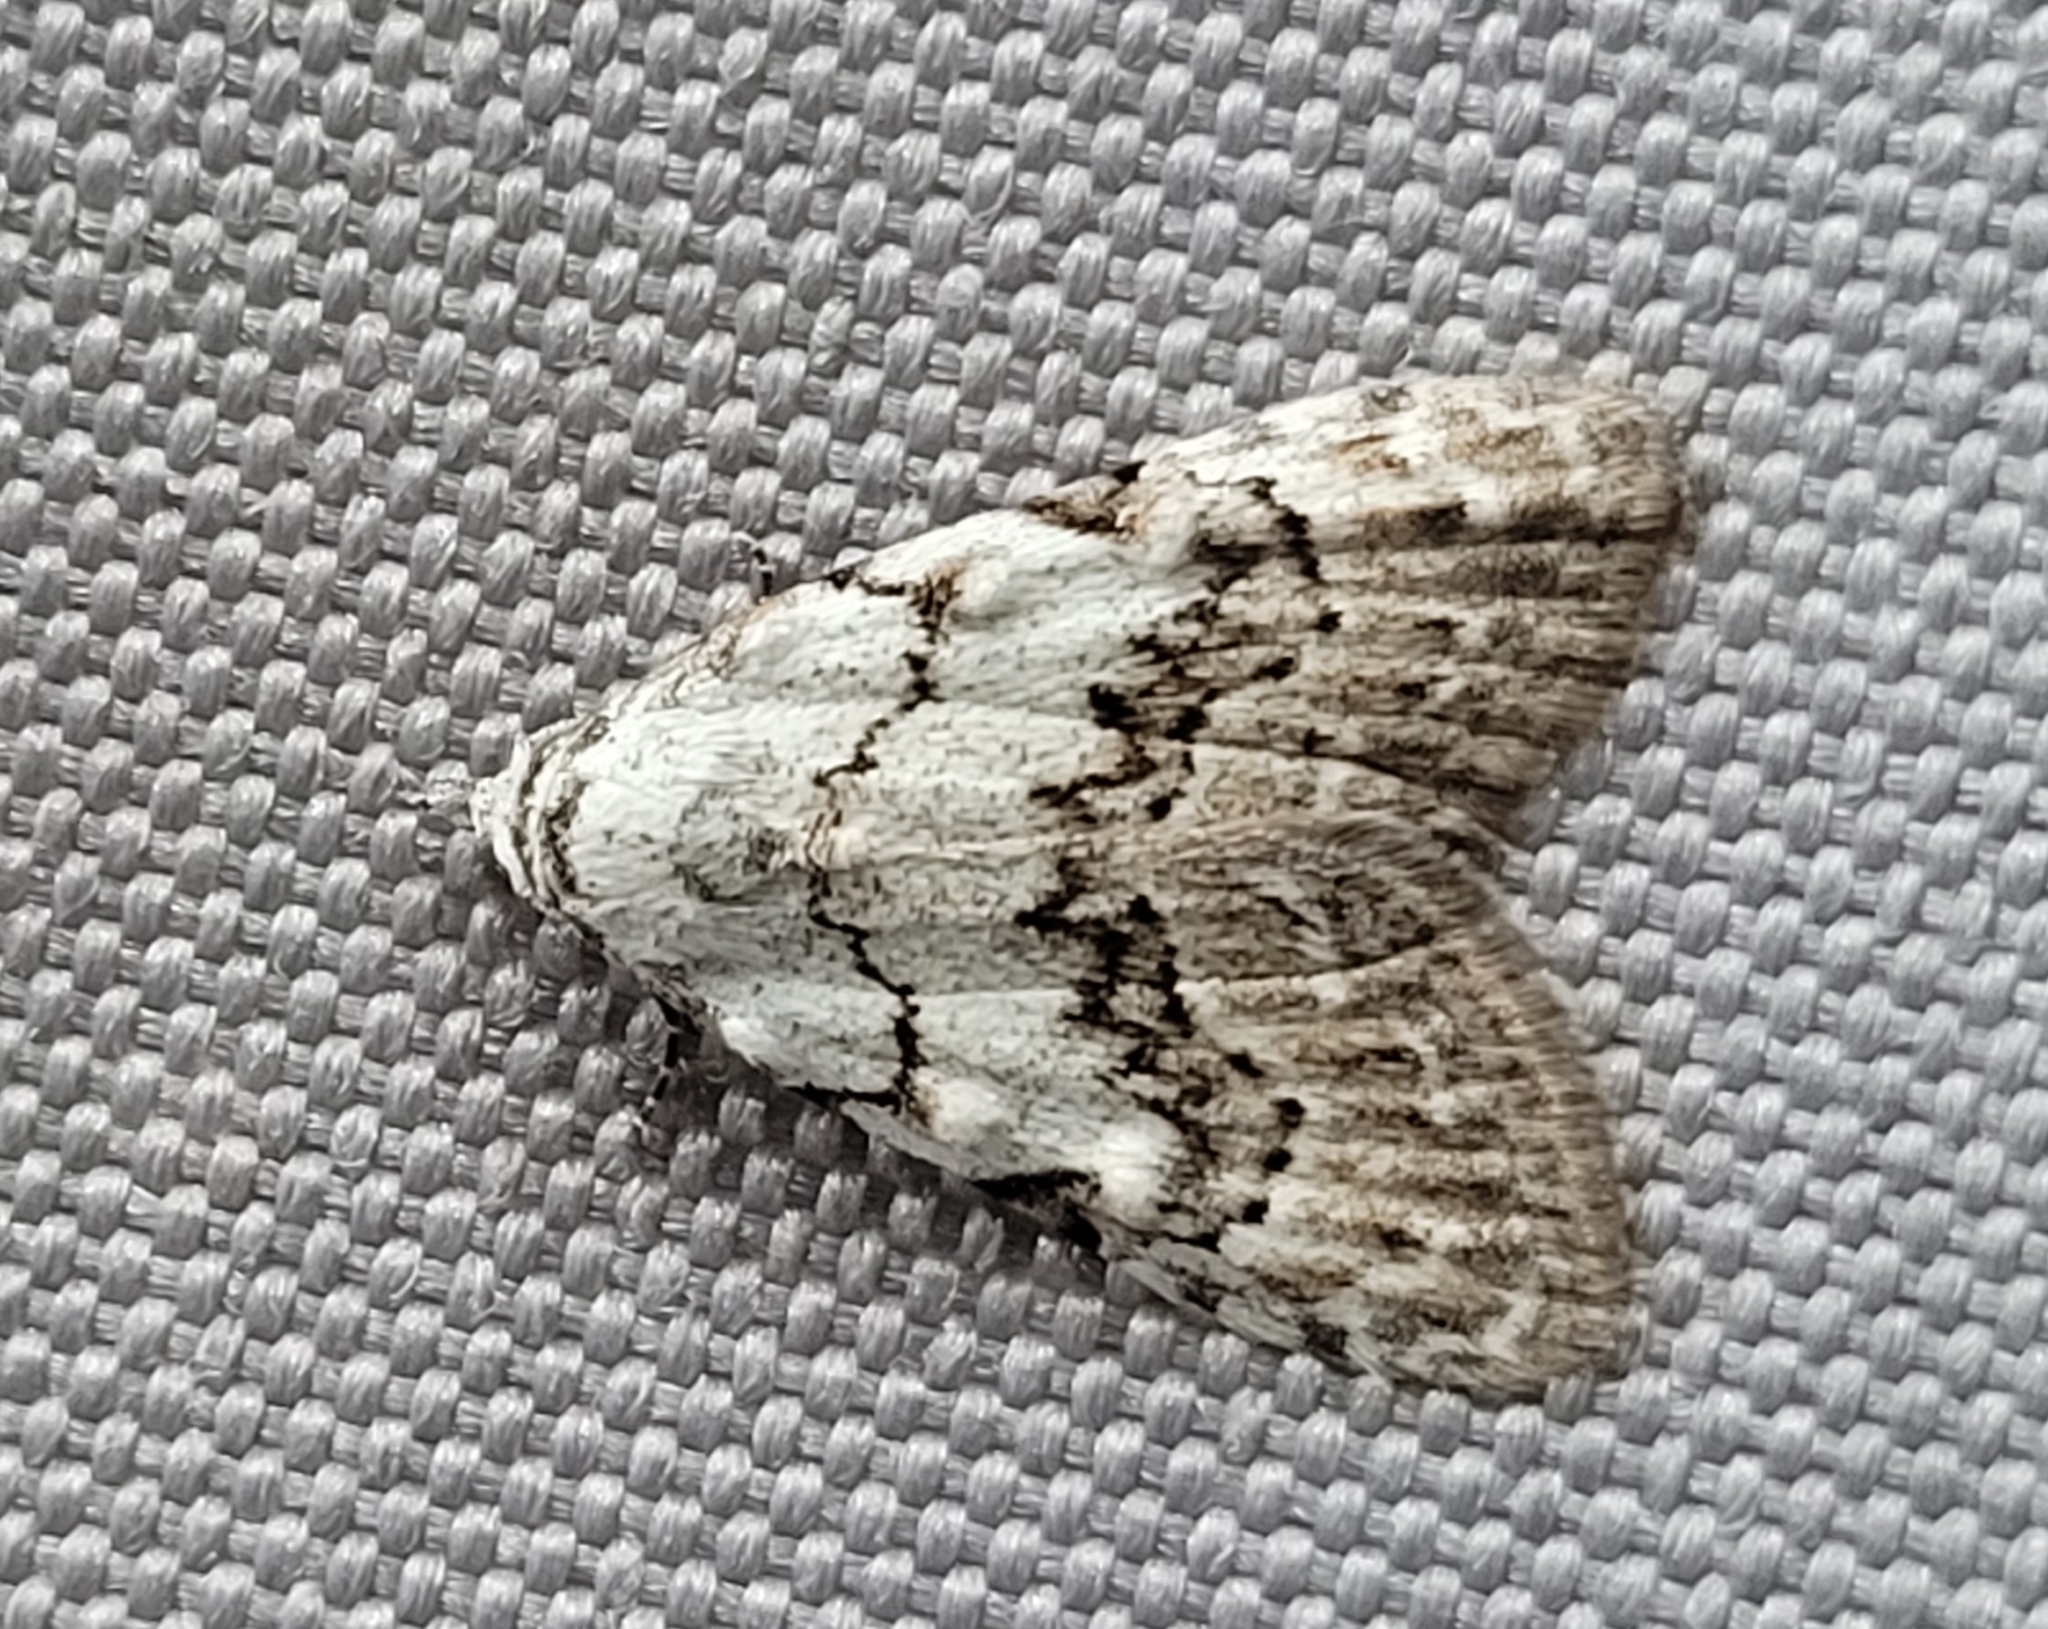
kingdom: Animalia
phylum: Arthropoda
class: Insecta
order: Lepidoptera
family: Nolidae
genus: Nola
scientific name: Nola confusalis
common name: Least black arches
